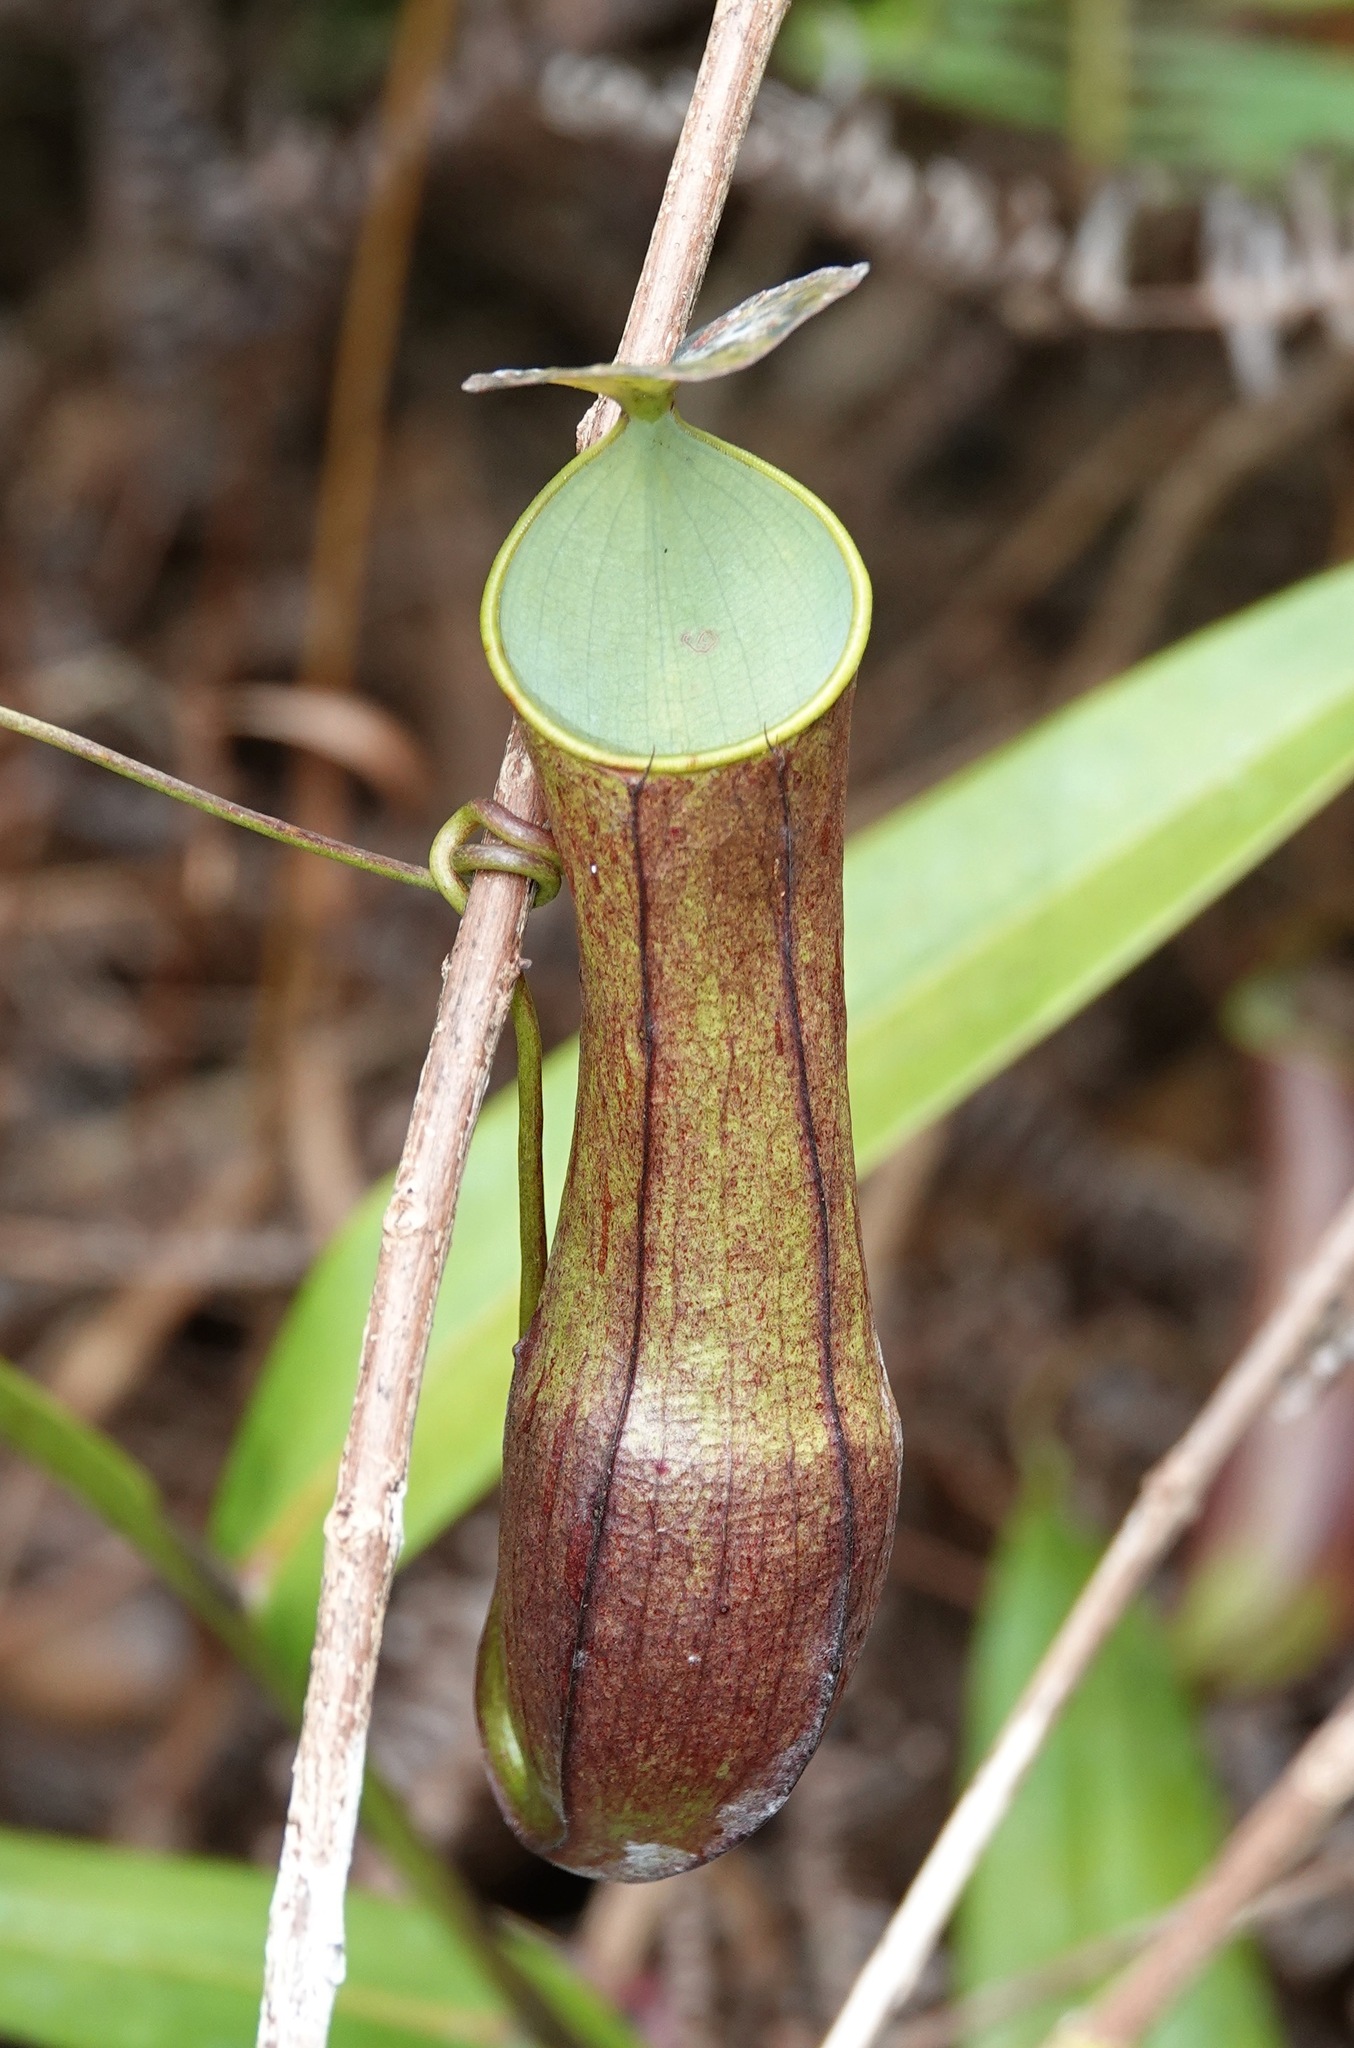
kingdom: Plantae
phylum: Tracheophyta
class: Magnoliopsida
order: Caryophyllales
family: Nepenthaceae
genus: Nepenthes
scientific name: Nepenthes gracilis
